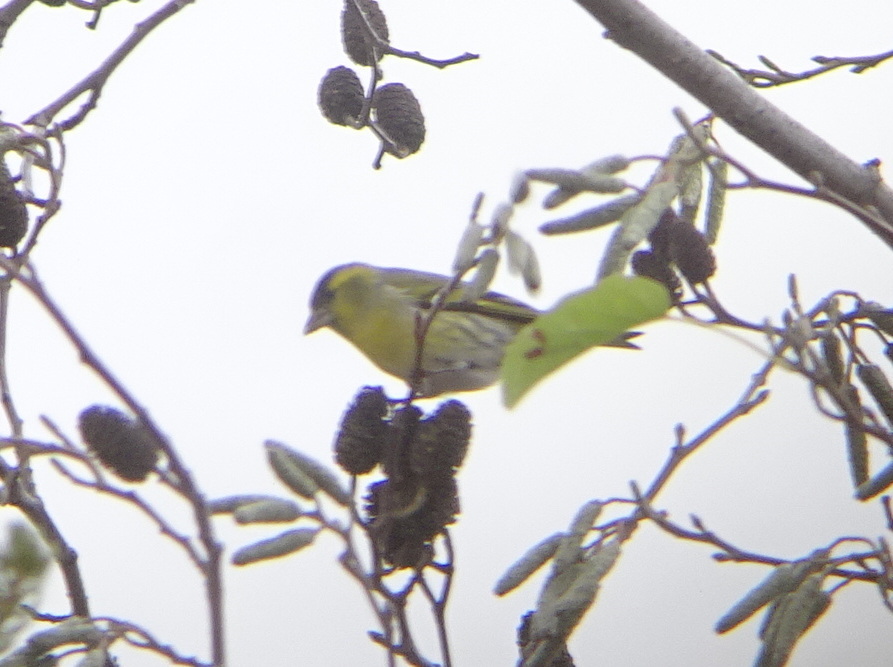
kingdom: Animalia
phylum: Chordata
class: Aves
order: Passeriformes
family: Fringillidae
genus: Spinus
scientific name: Spinus spinus
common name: Eurasian siskin
